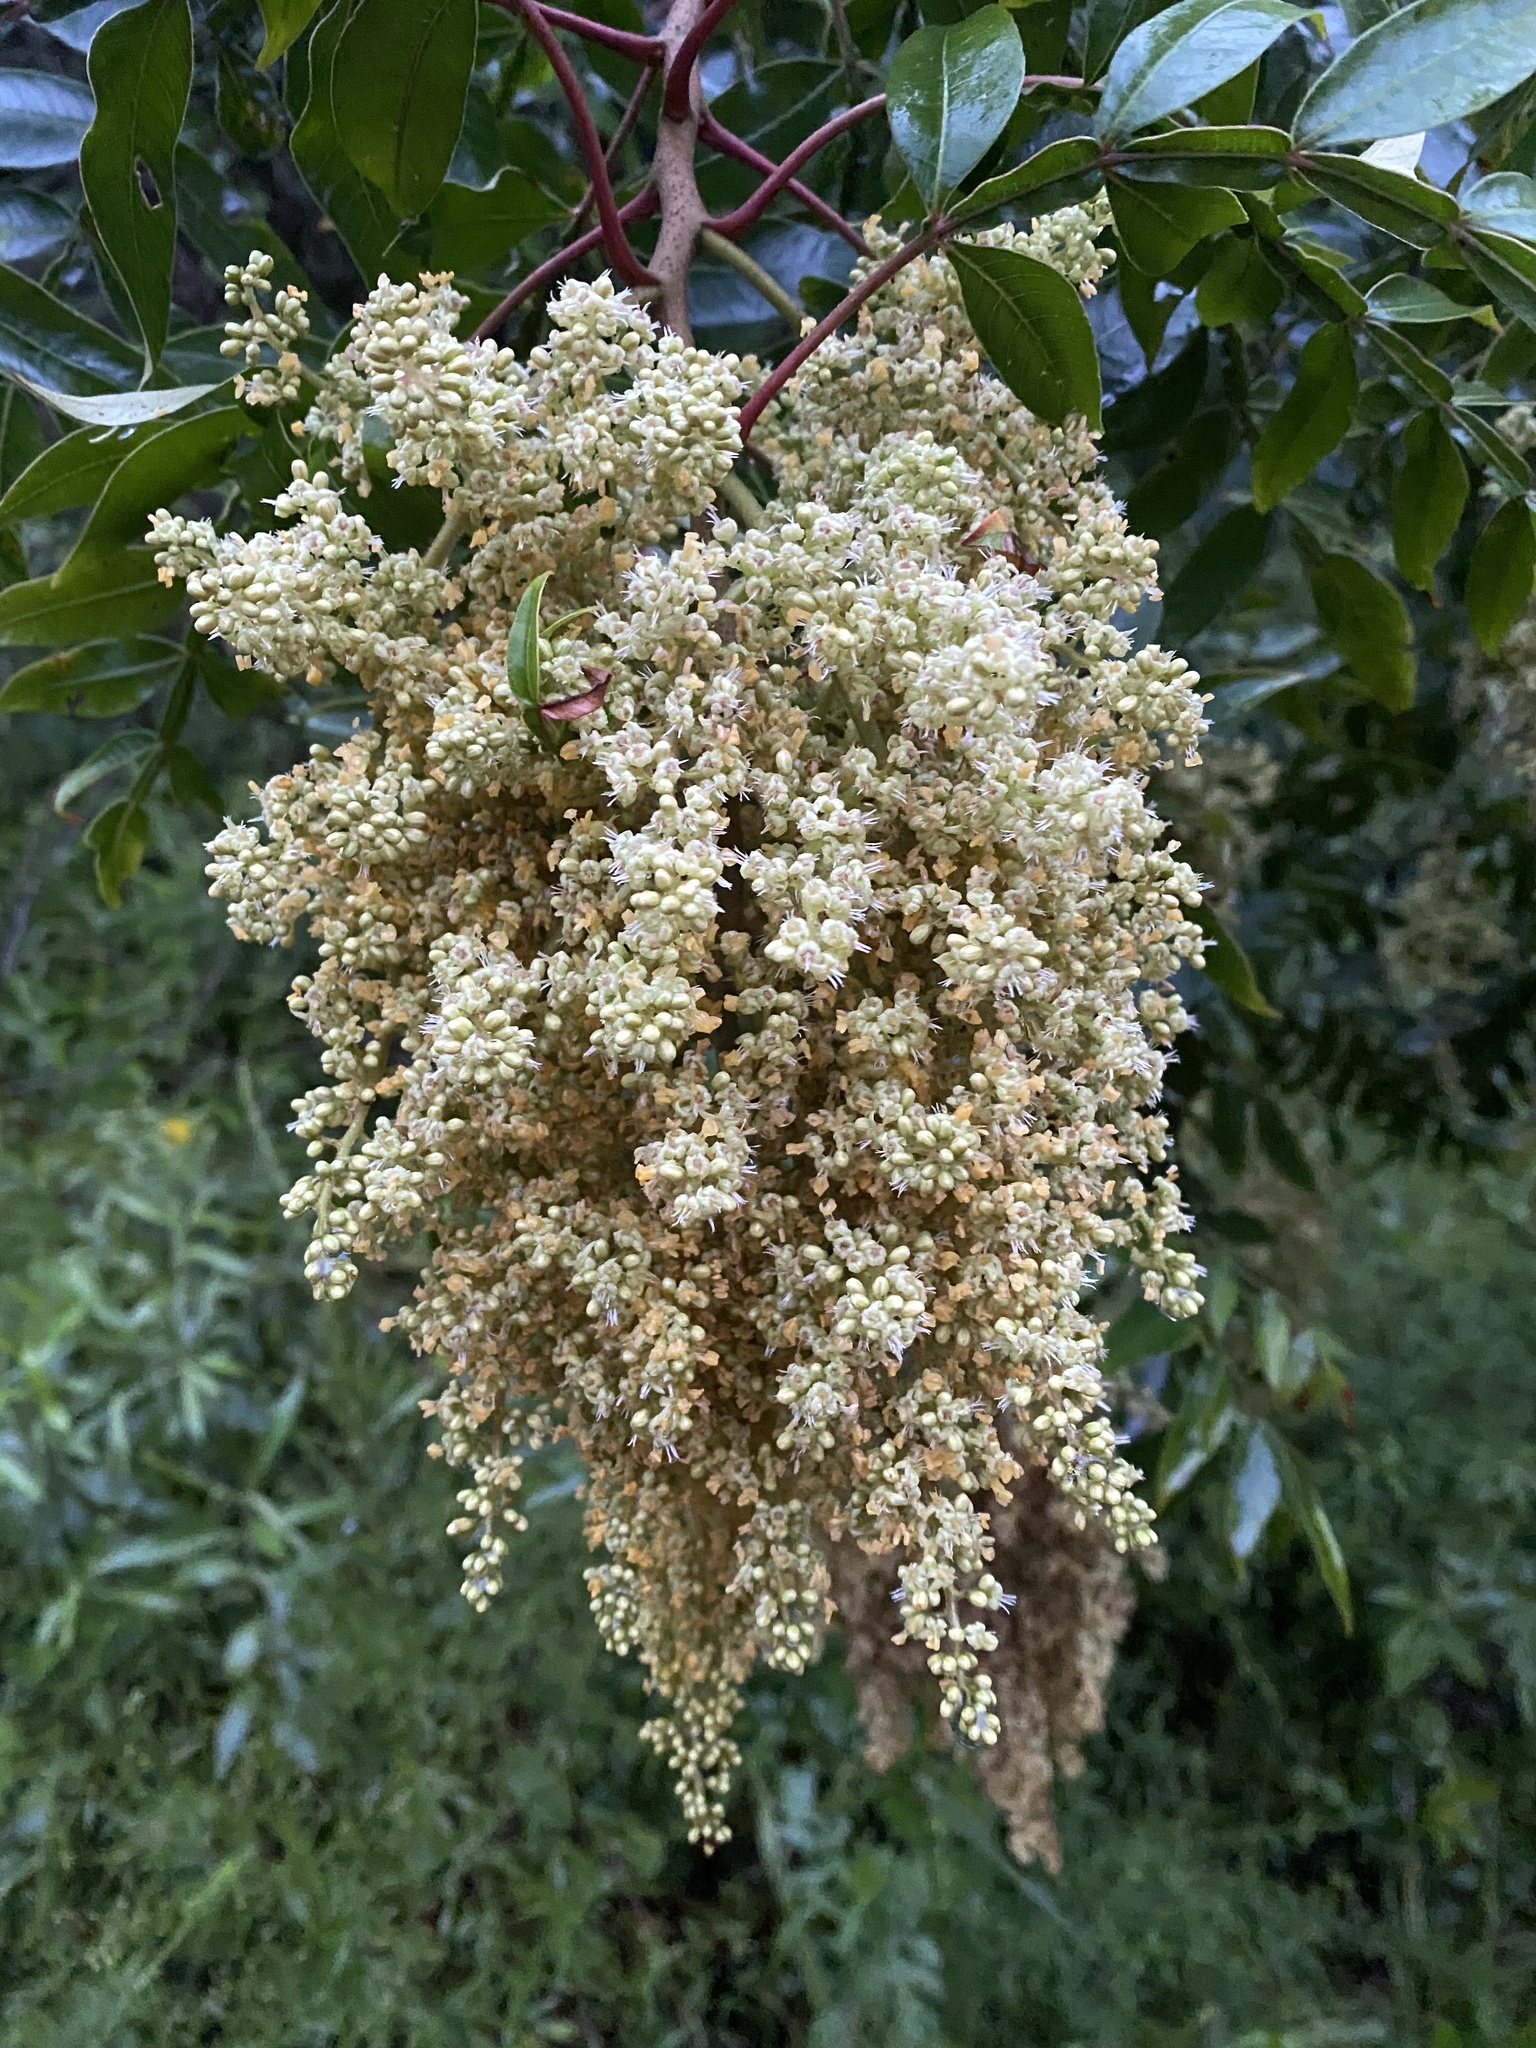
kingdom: Plantae
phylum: Tracheophyta
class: Magnoliopsida
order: Sapindales
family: Anacardiaceae
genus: Rhus
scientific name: Rhus copallina
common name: Shining sumac
